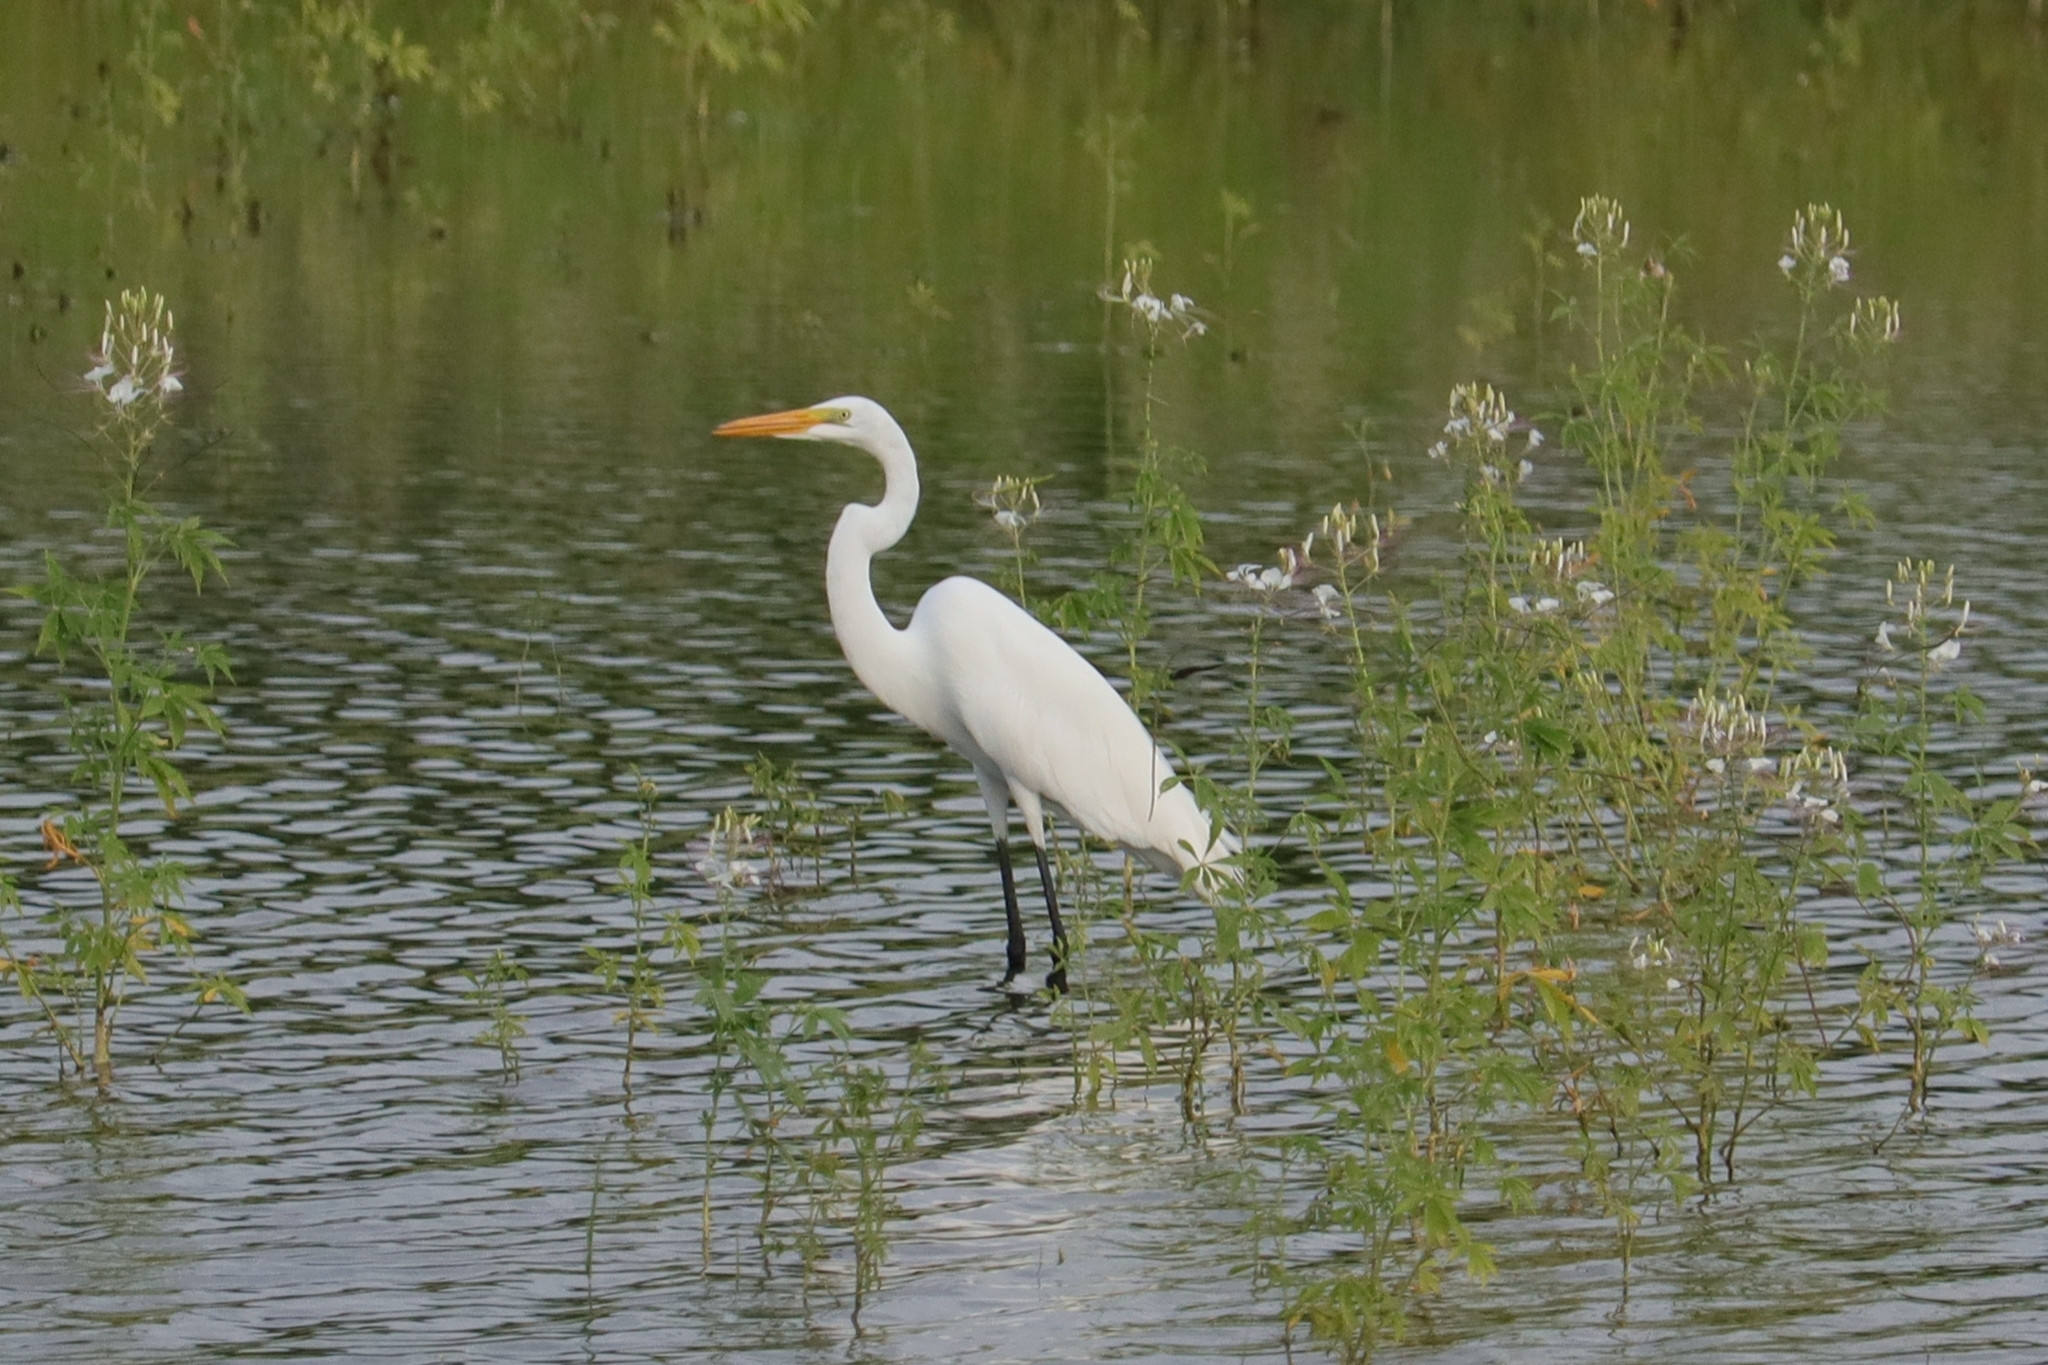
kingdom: Animalia
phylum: Chordata
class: Aves
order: Pelecaniformes
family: Ardeidae
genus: Ardea
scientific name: Ardea alba
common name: Great egret
